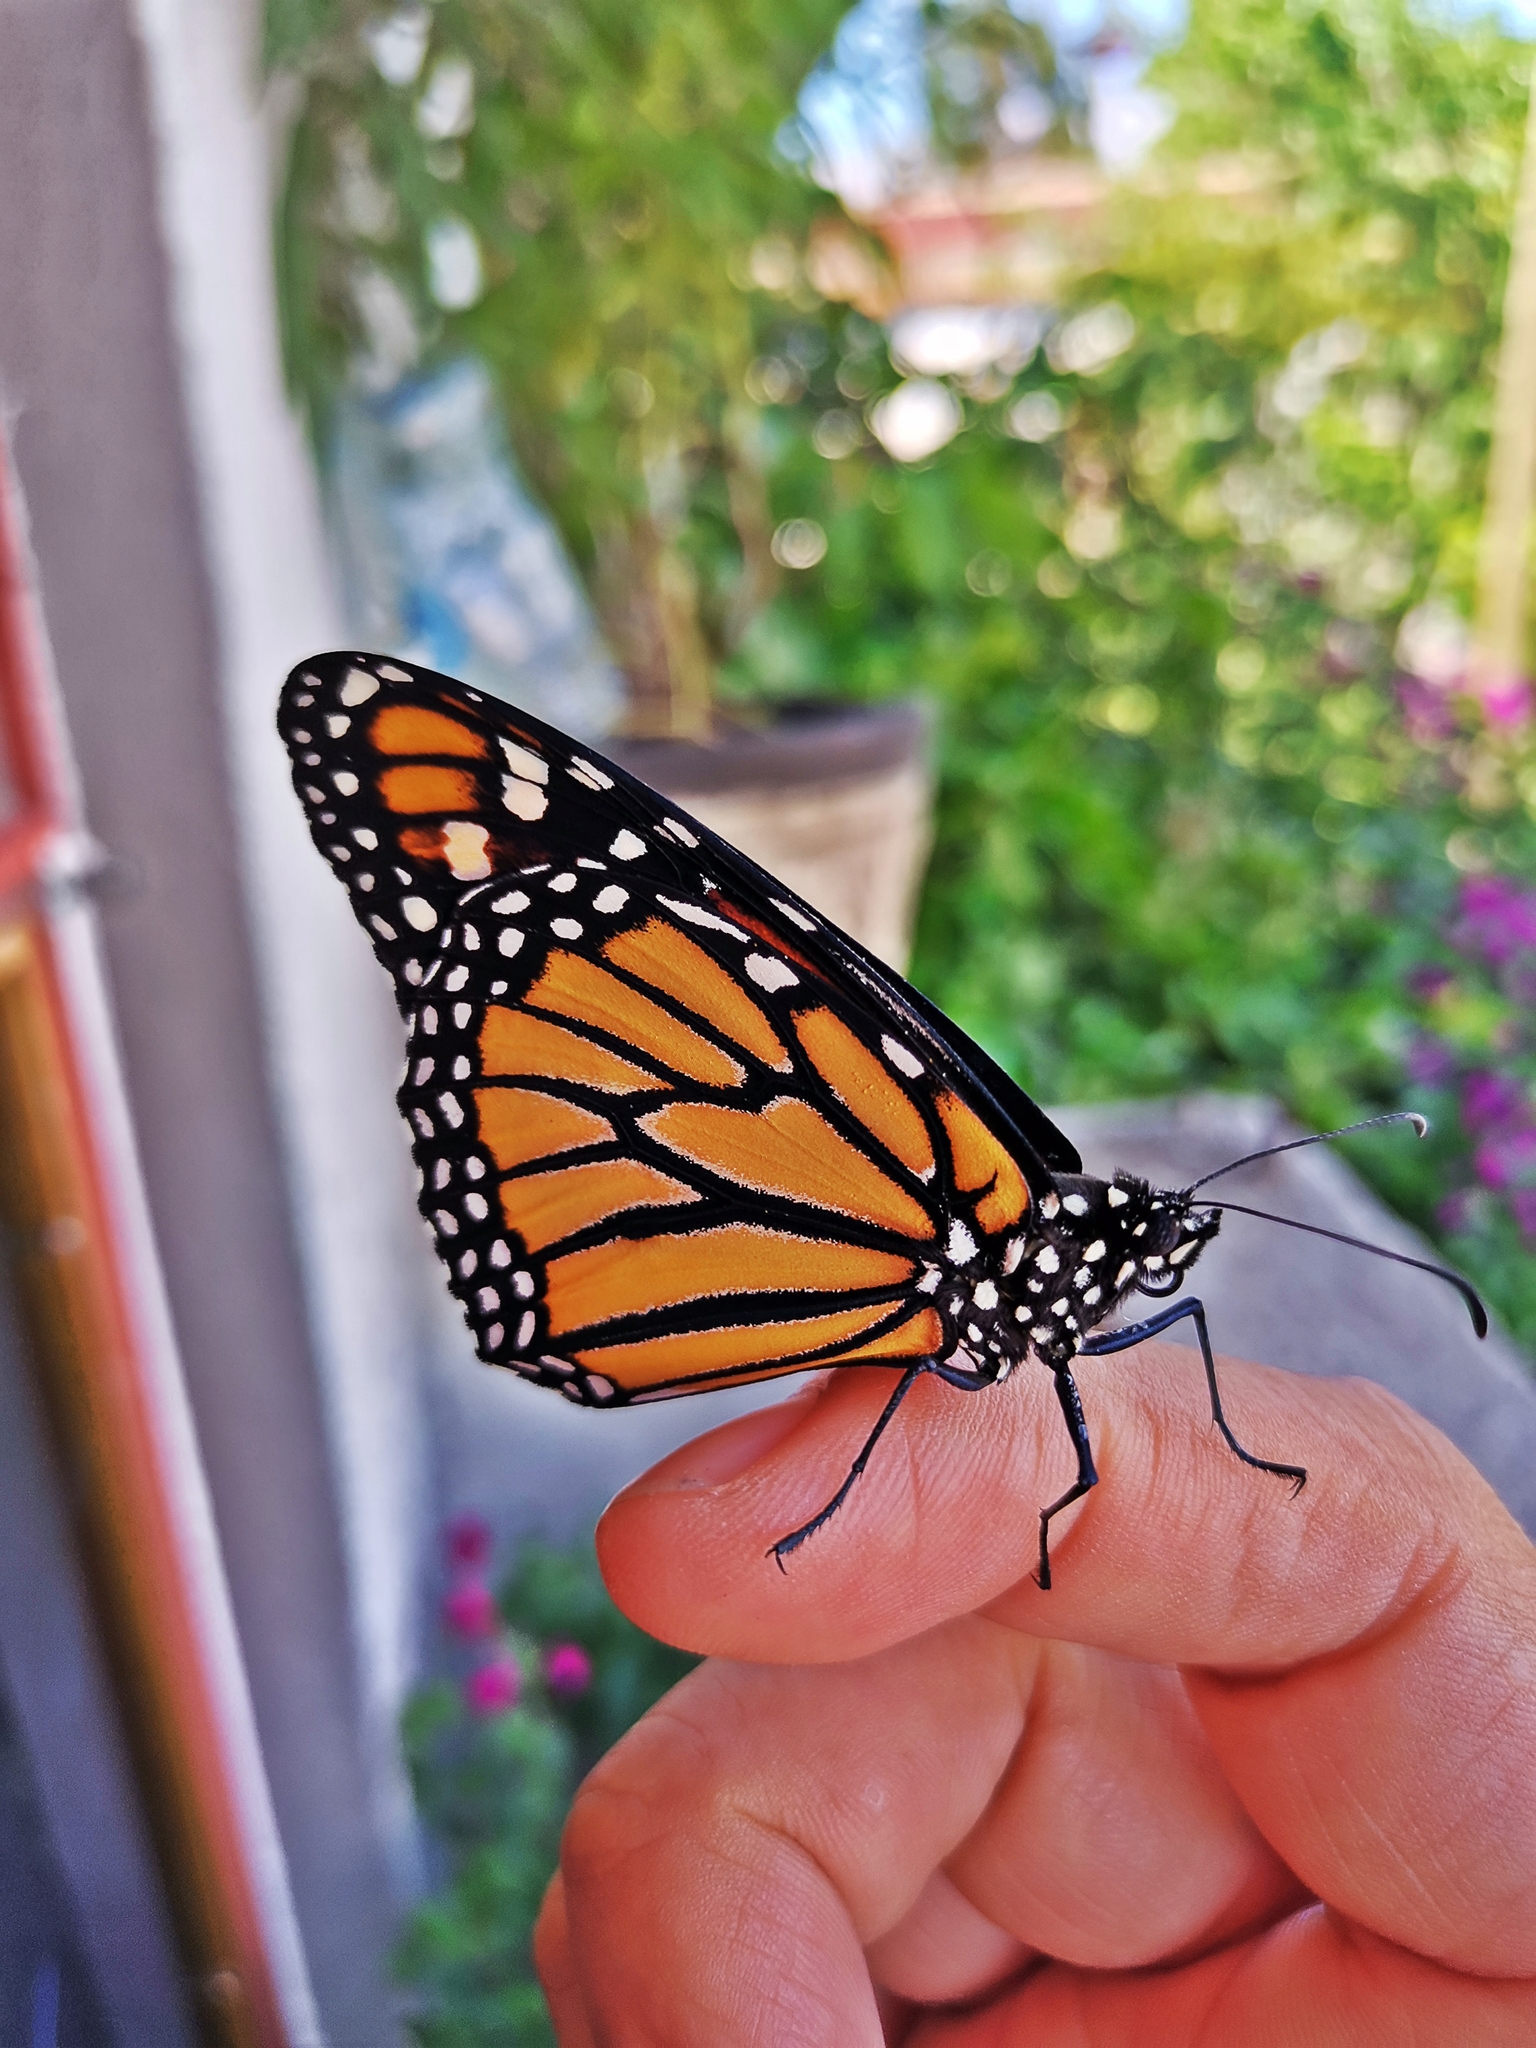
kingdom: Animalia
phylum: Arthropoda
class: Insecta
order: Lepidoptera
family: Nymphalidae
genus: Danaus
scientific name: Danaus plexippus
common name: Monarch
